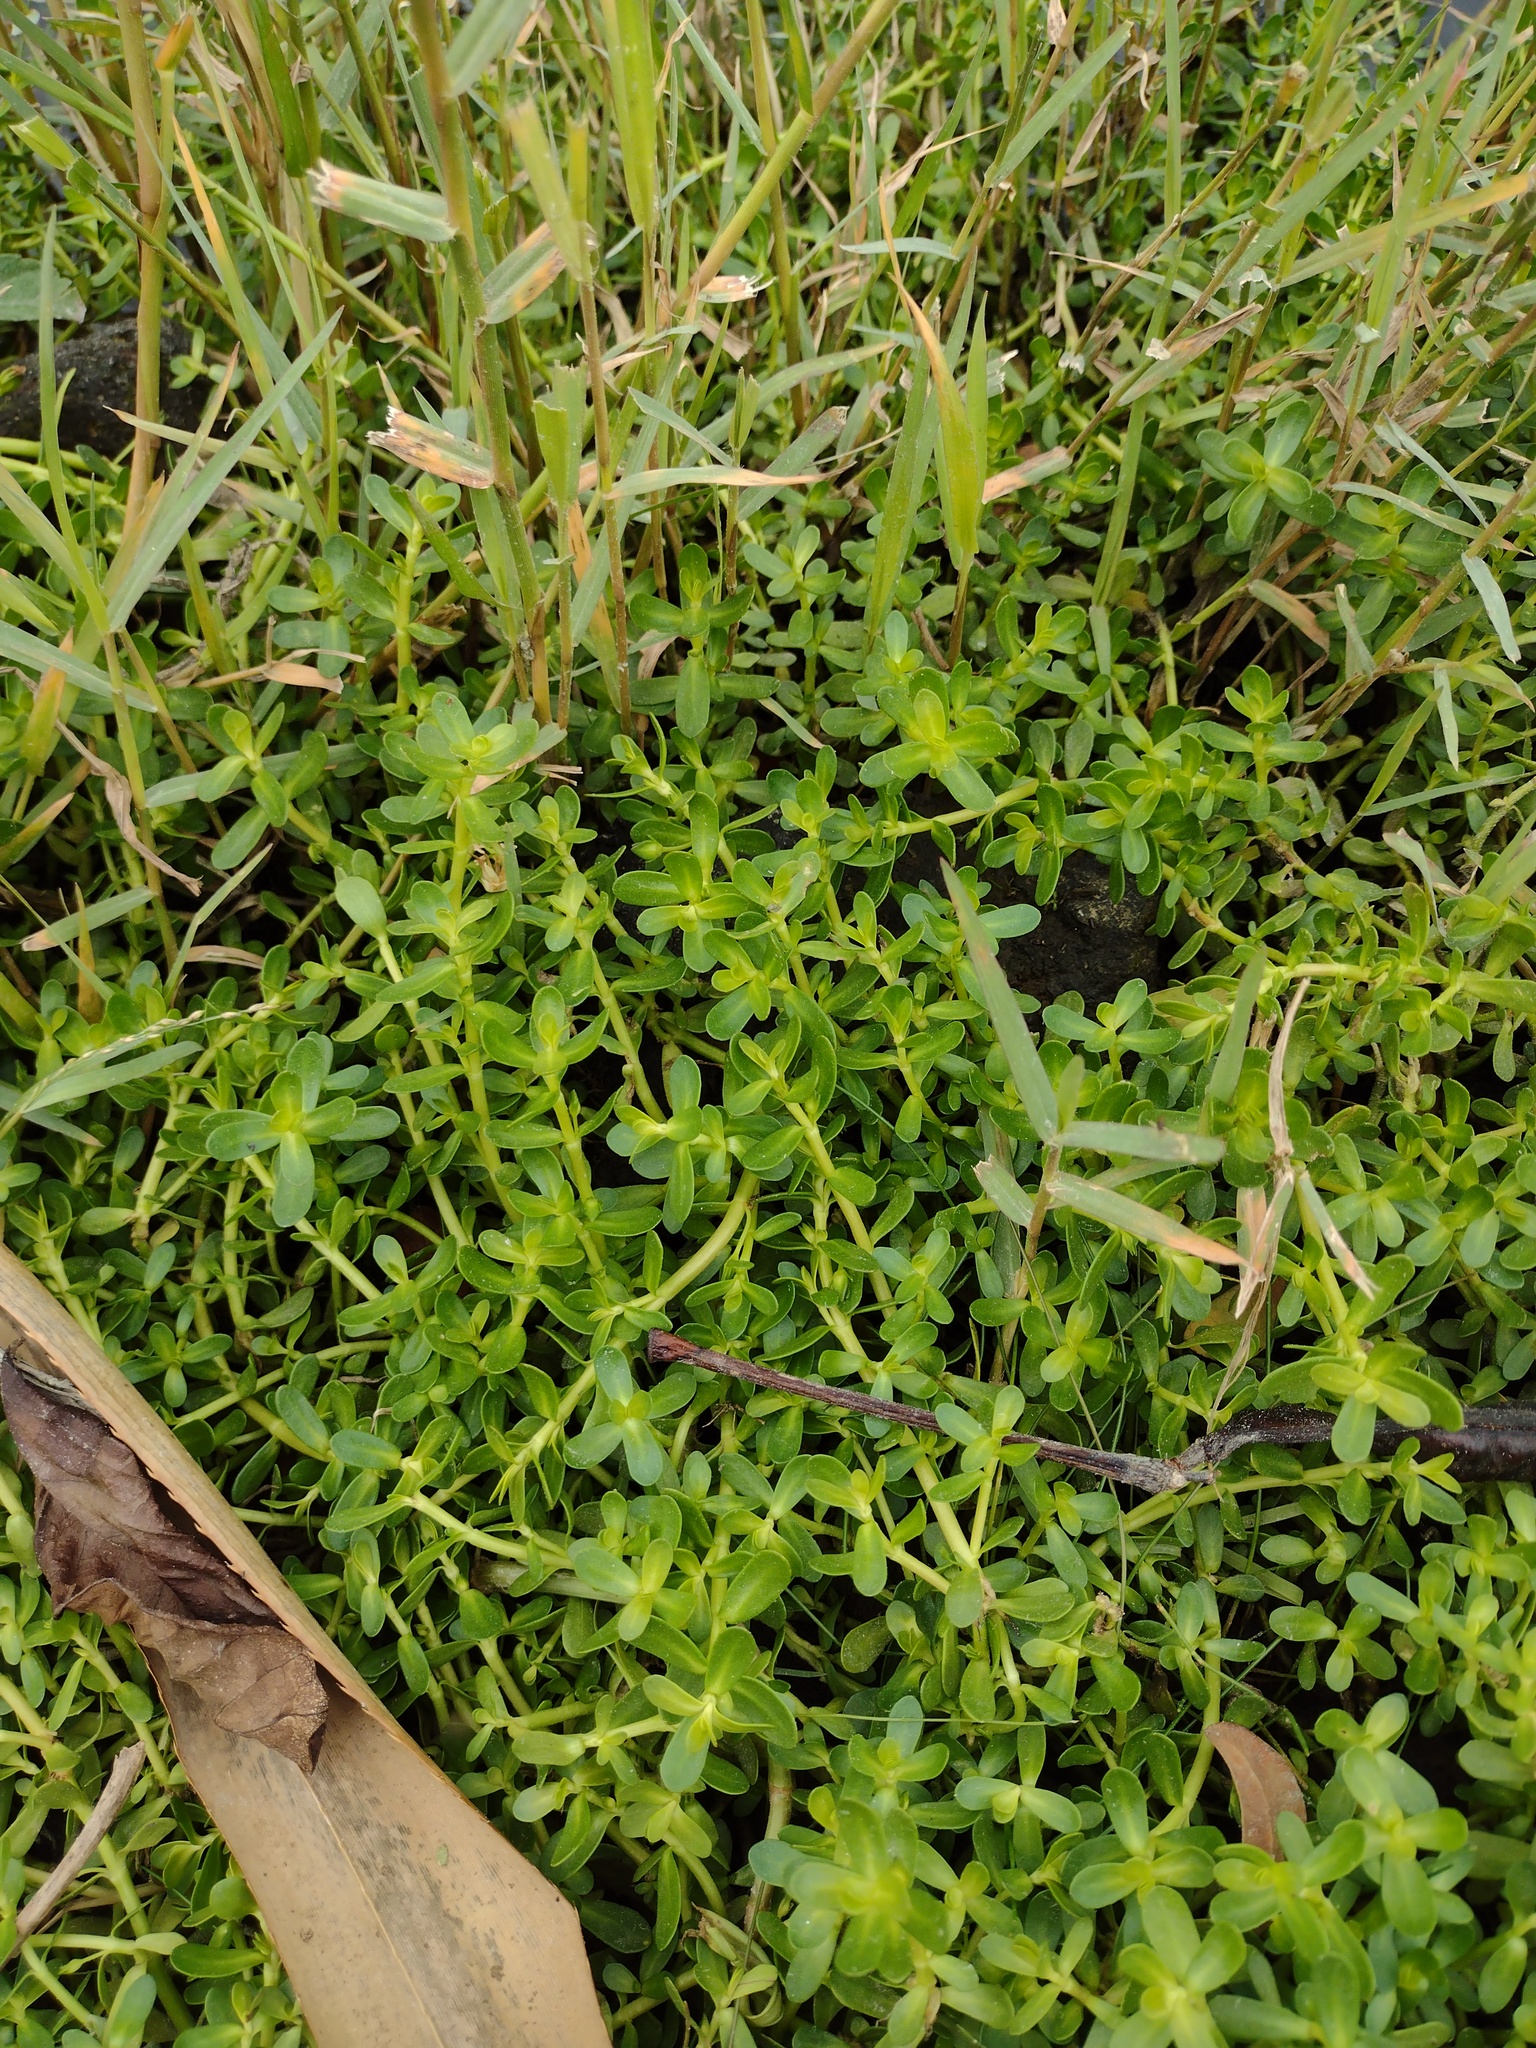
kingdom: Plantae
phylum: Tracheophyta
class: Magnoliopsida
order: Lamiales
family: Plantaginaceae
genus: Bacopa
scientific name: Bacopa monnieri
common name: Indian-pennywort
